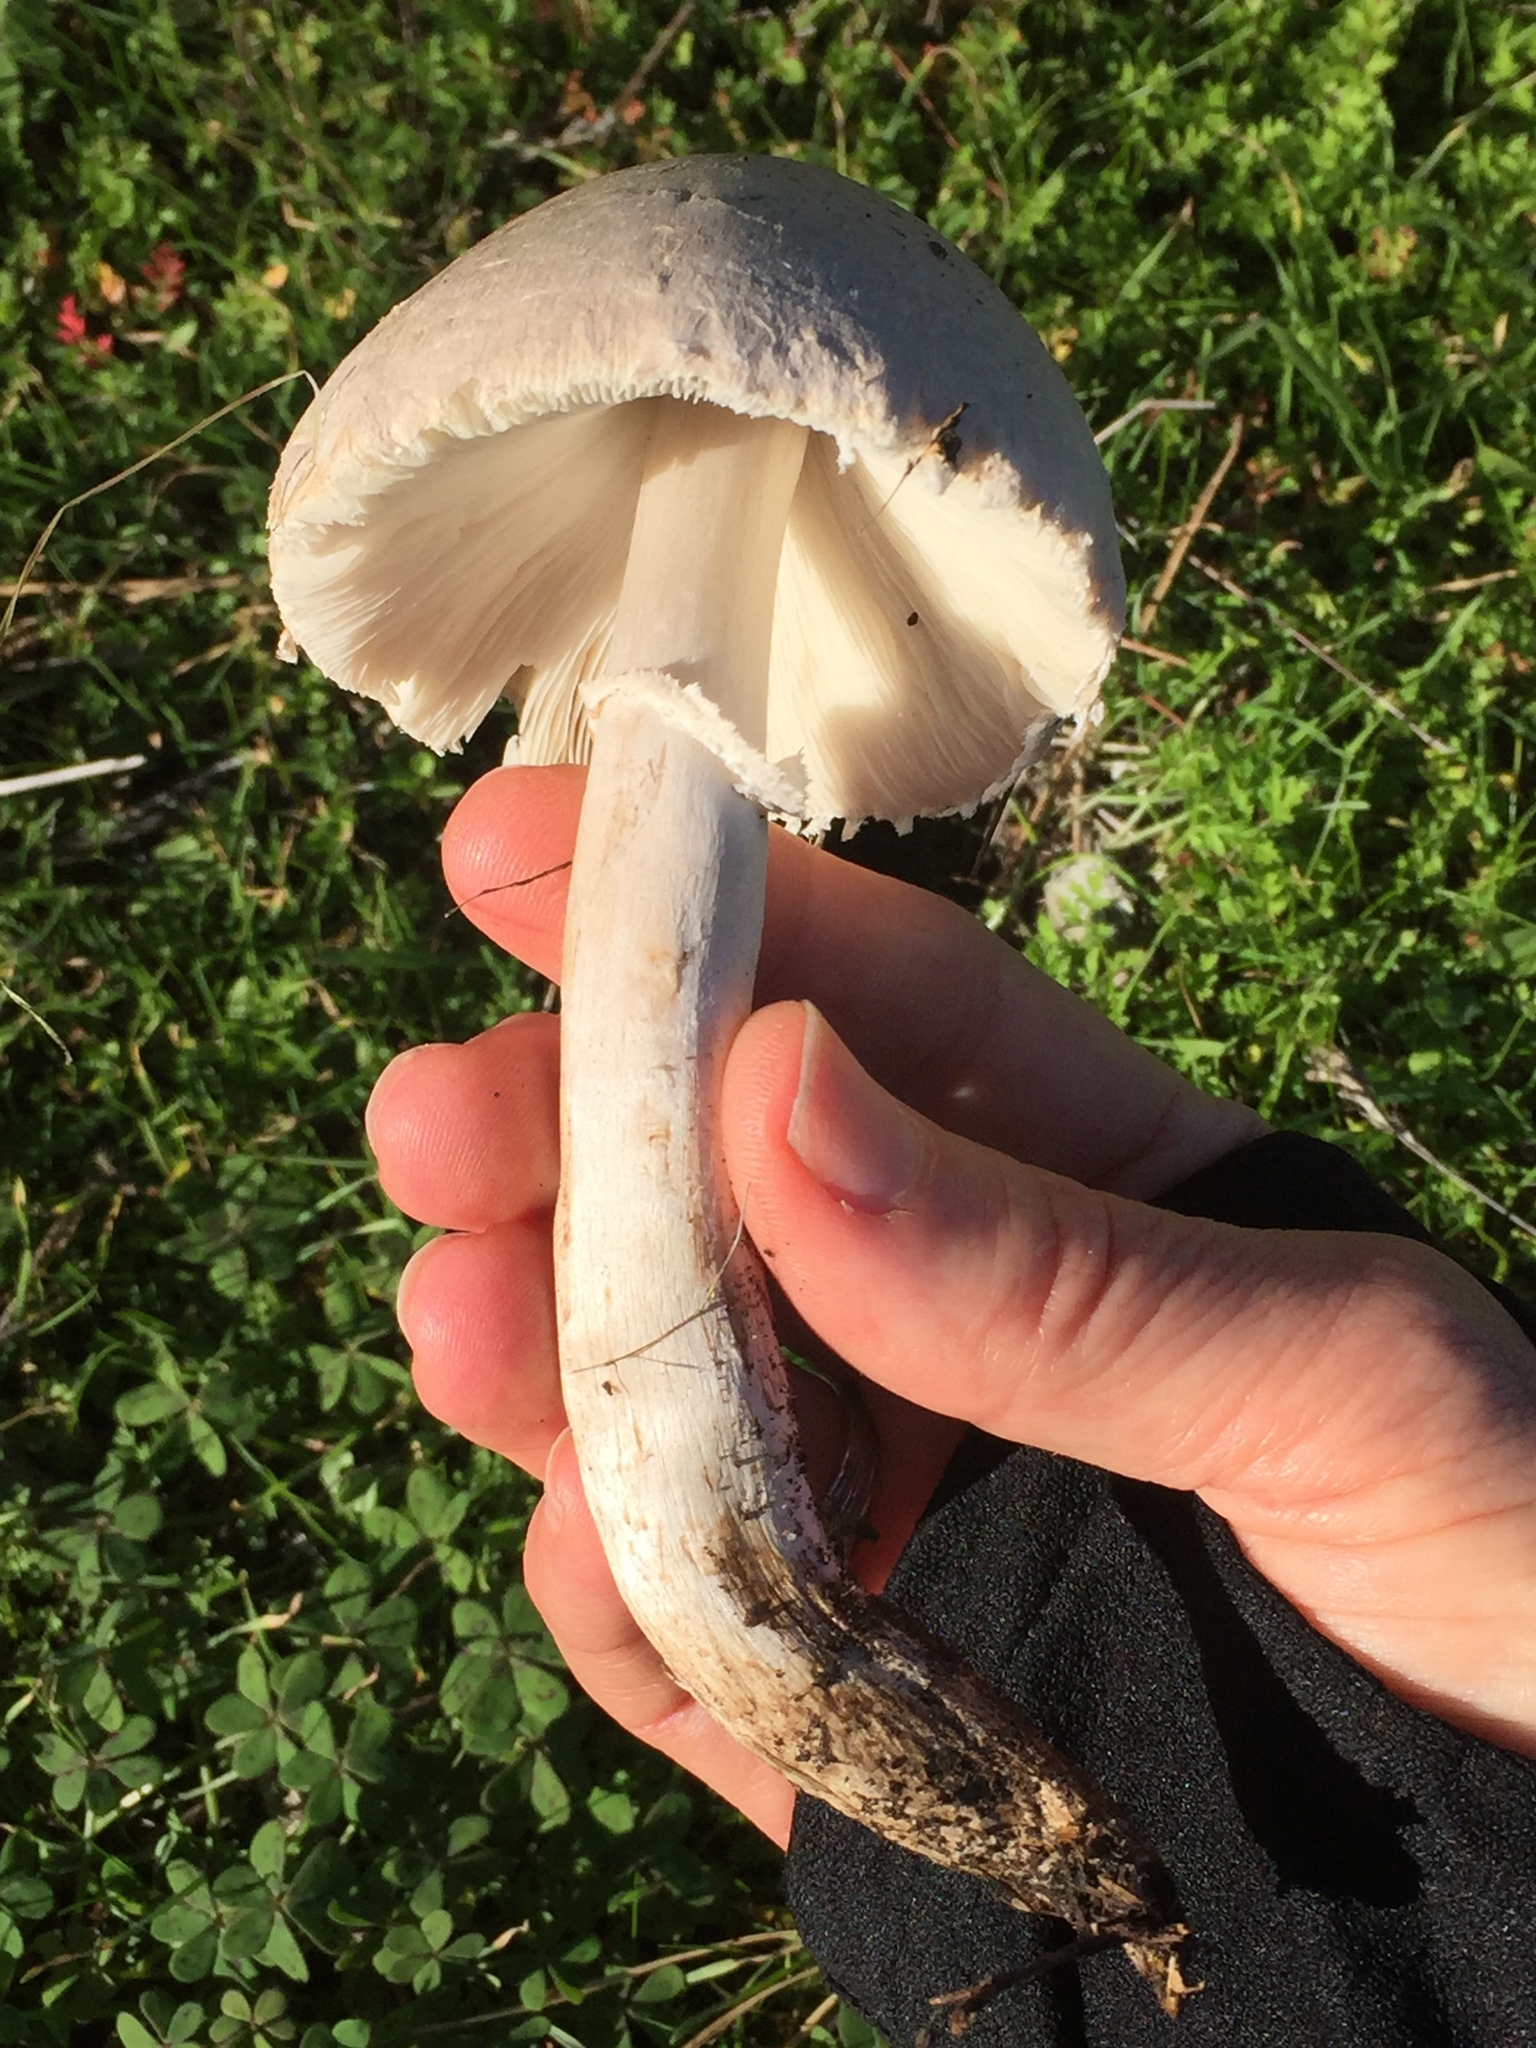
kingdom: Fungi
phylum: Basidiomycota
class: Agaricomycetes
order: Agaricales
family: Agaricaceae
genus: Leucoagaricus
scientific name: Leucoagaricus leucothites
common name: White dapperling
